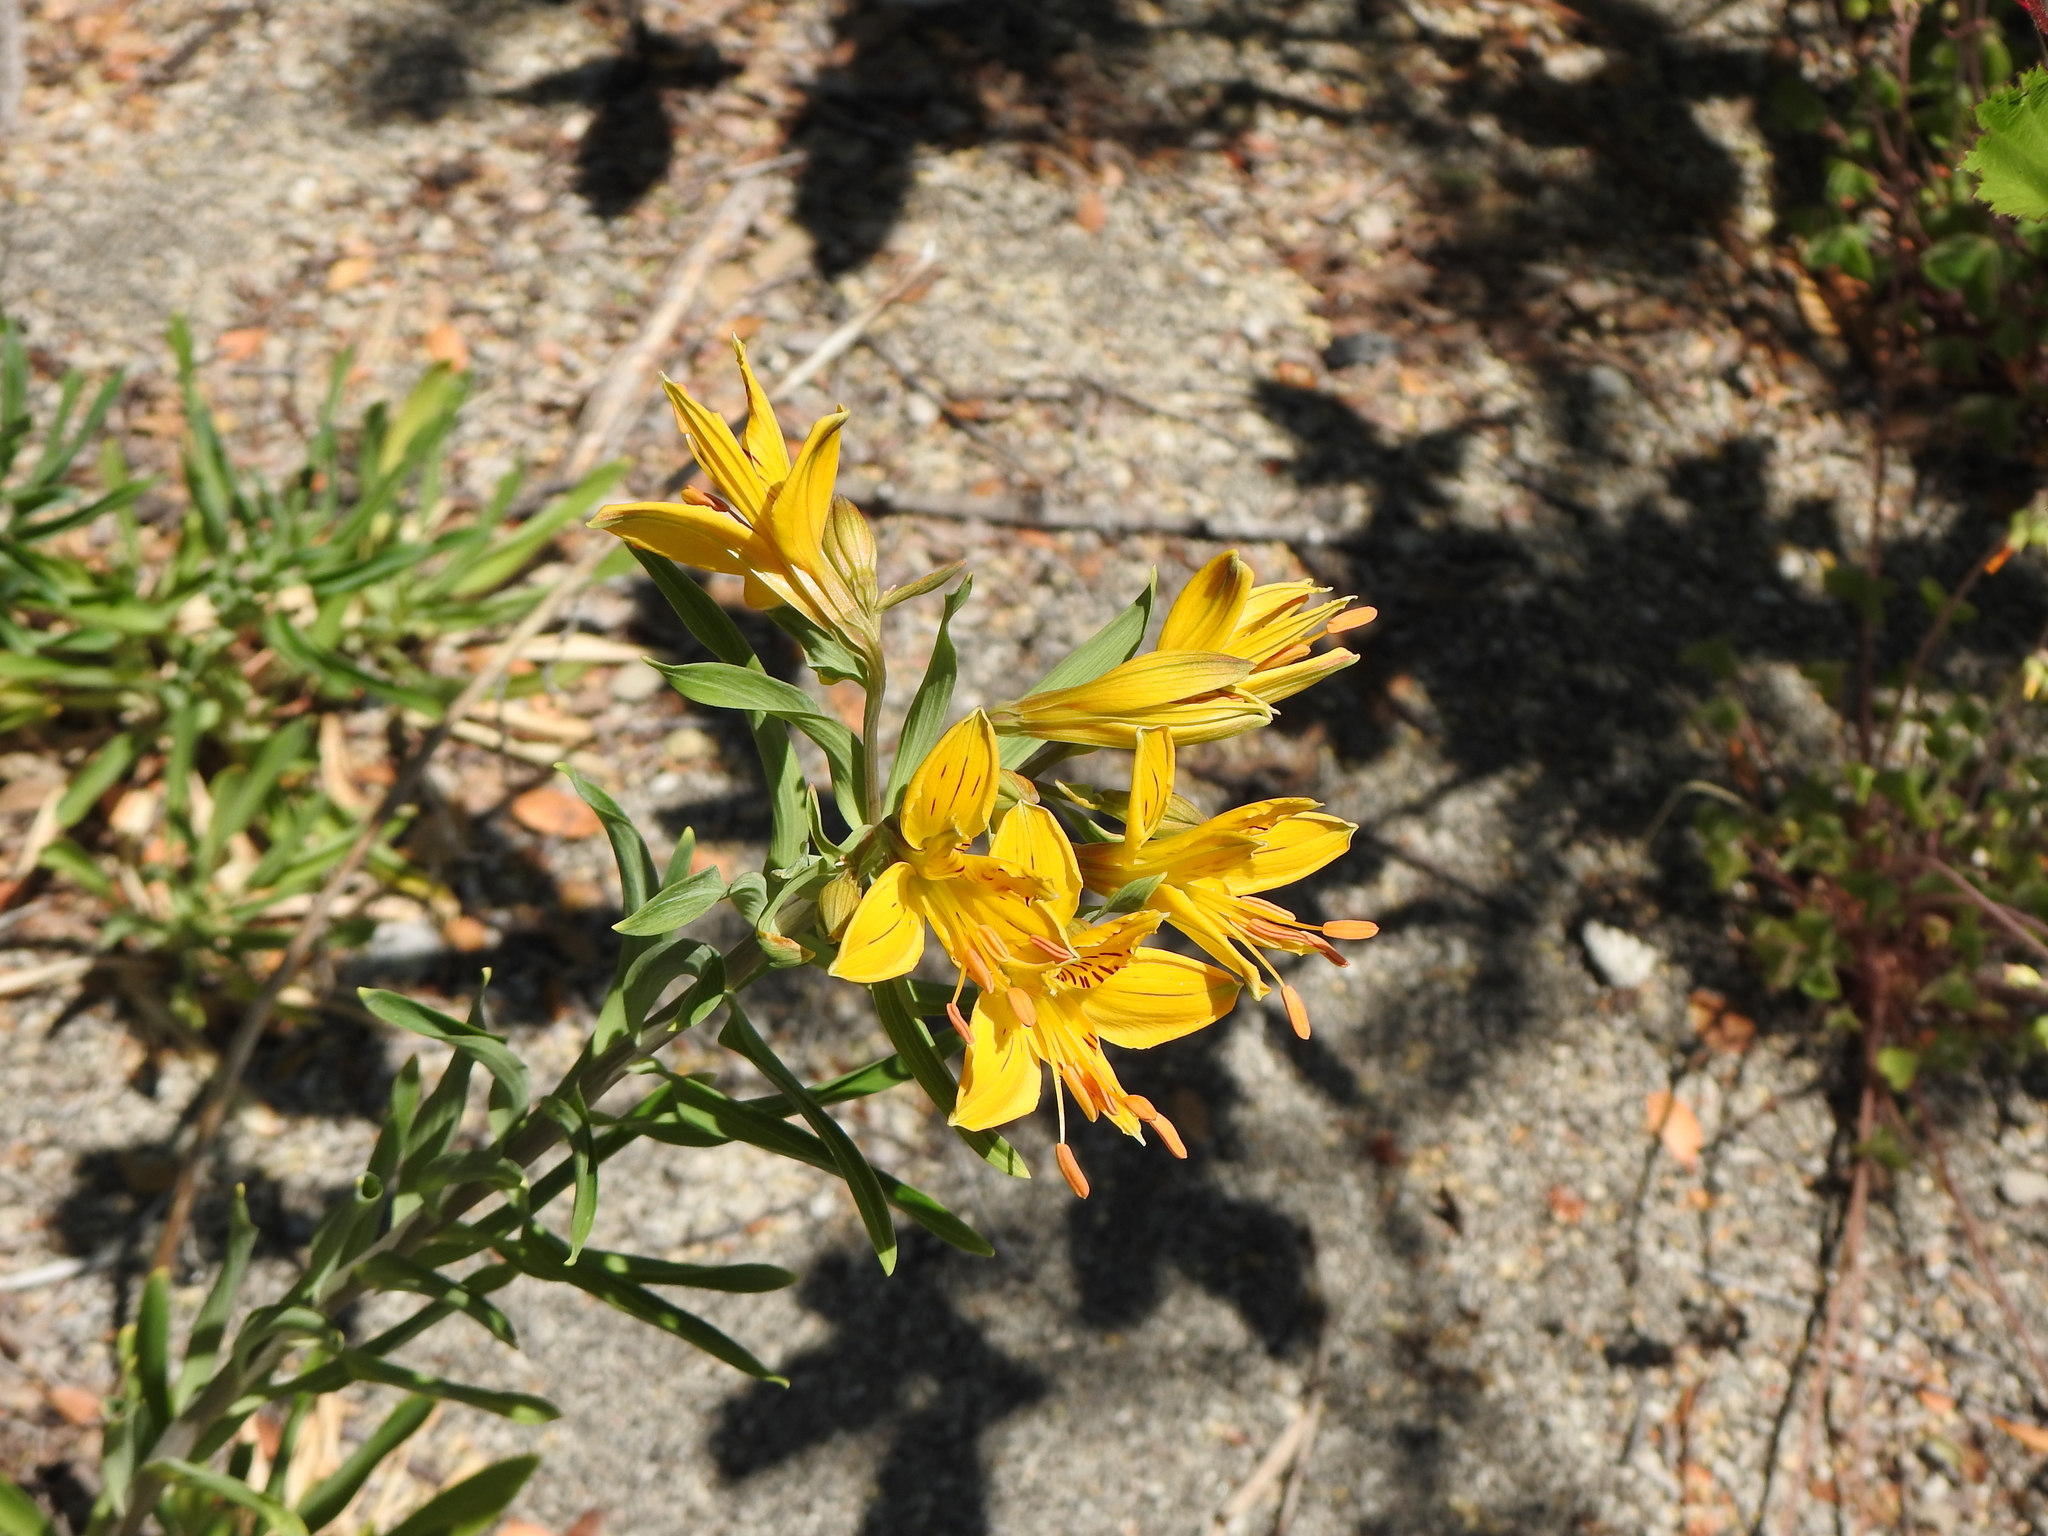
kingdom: Plantae
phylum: Tracheophyta
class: Liliopsida
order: Liliales
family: Alstroemeriaceae
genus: Alstroemeria
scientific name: Alstroemeria aurea
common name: Peruvian lily
